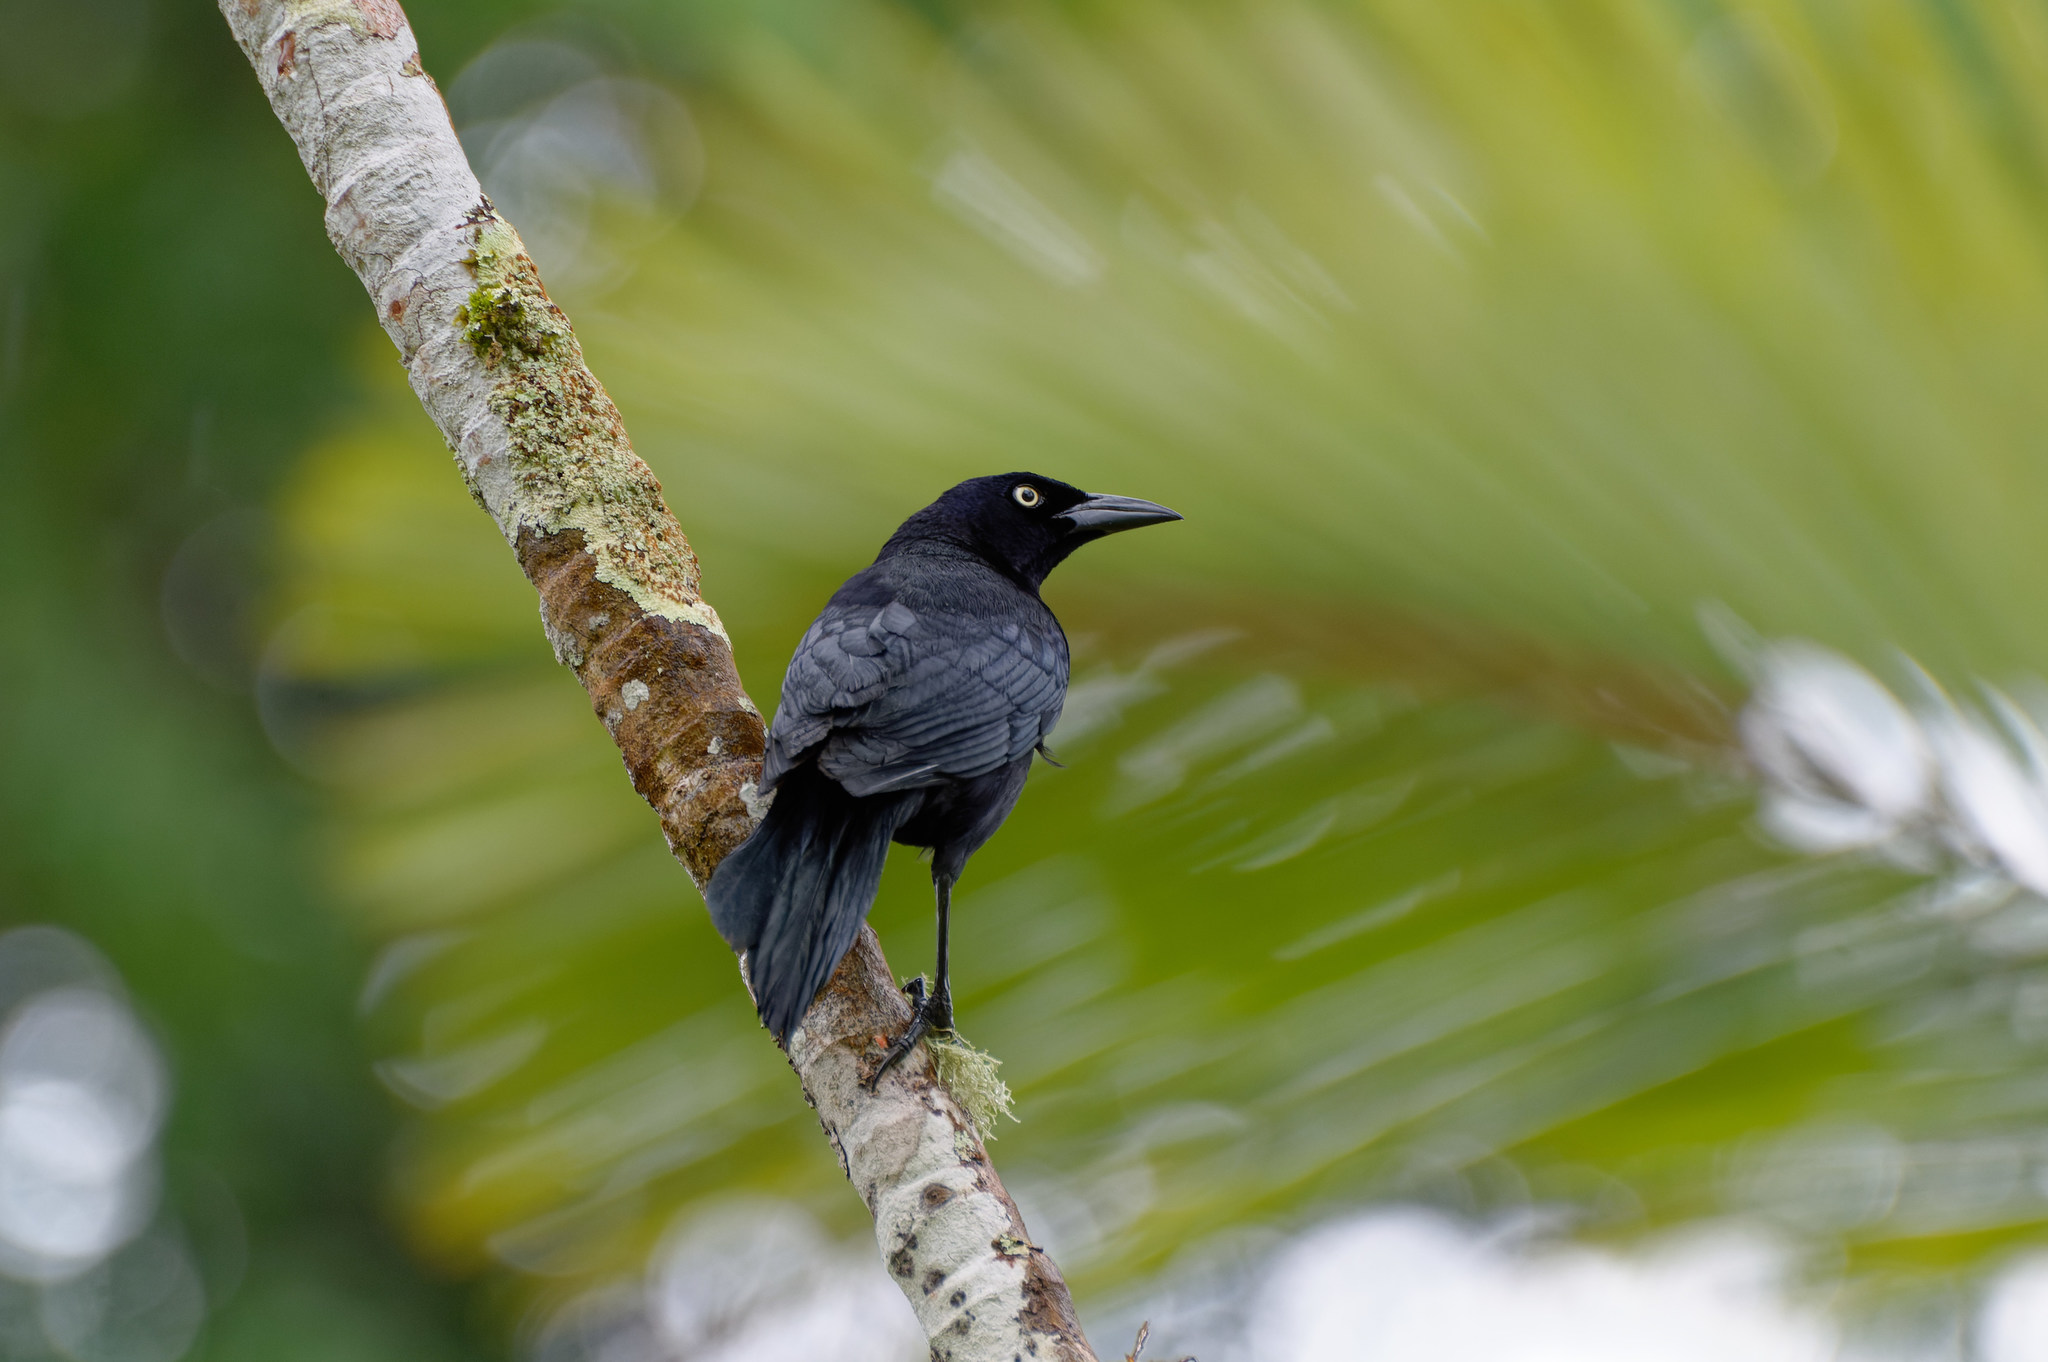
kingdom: Animalia
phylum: Chordata
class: Aves
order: Passeriformes
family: Icteridae
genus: Quiscalus
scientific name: Quiscalus lugubris
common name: Carib grackle
